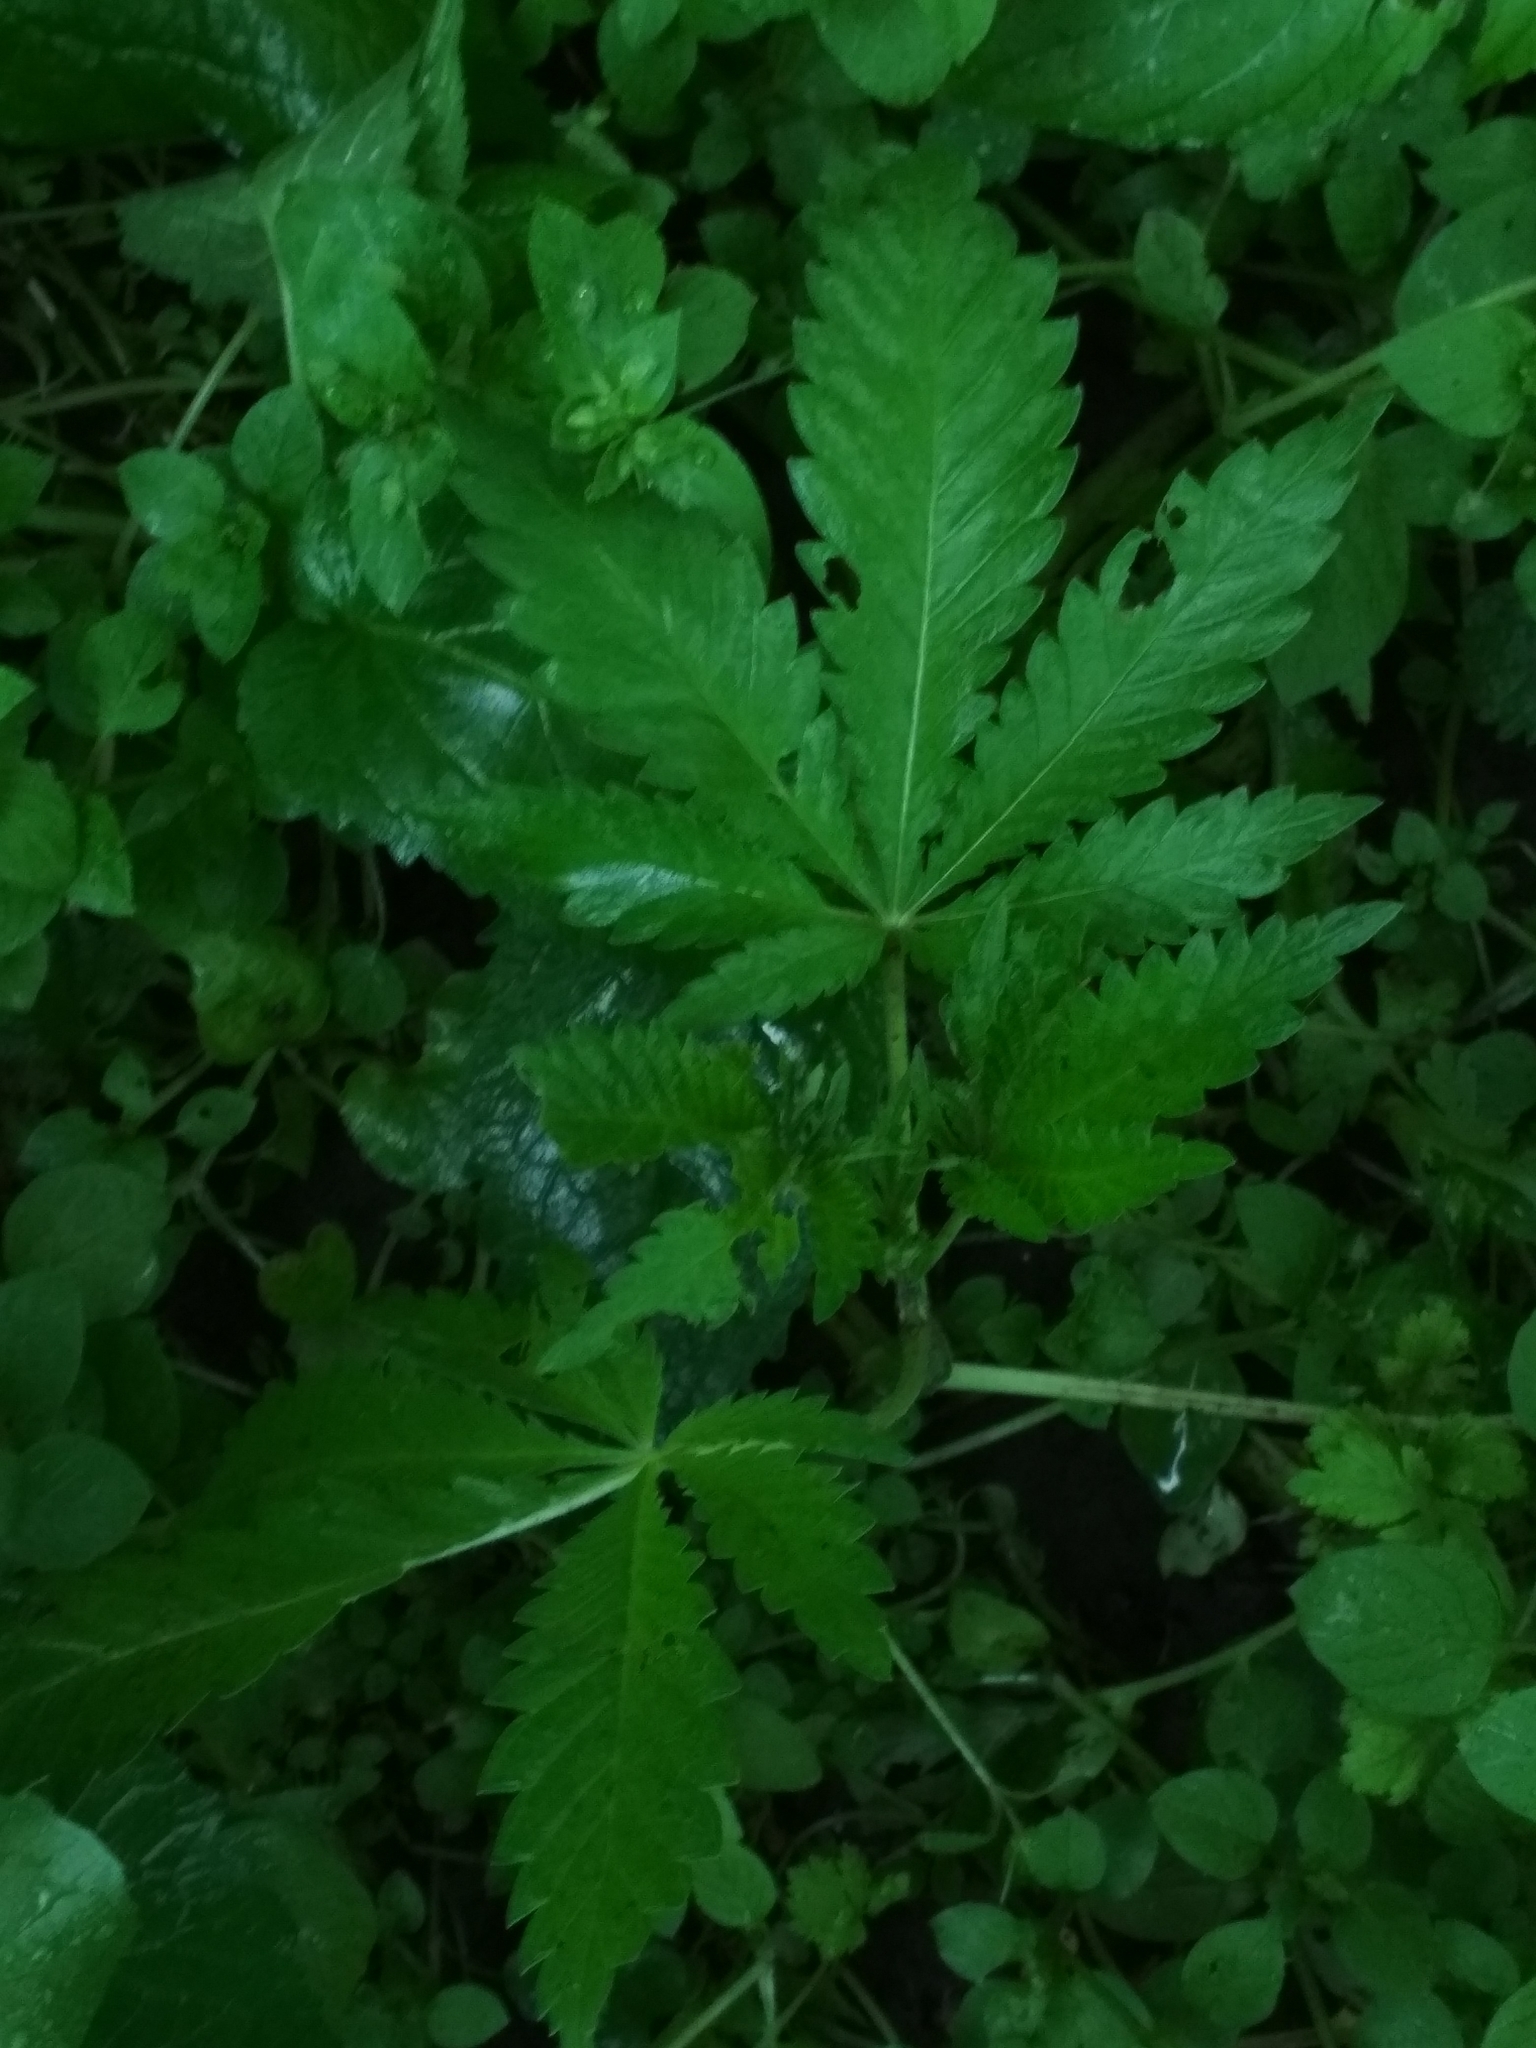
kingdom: Plantae
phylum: Tracheophyta
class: Magnoliopsida
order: Rosales
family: Cannabaceae
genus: Cannabis
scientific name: Cannabis sativa
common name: Hemp
